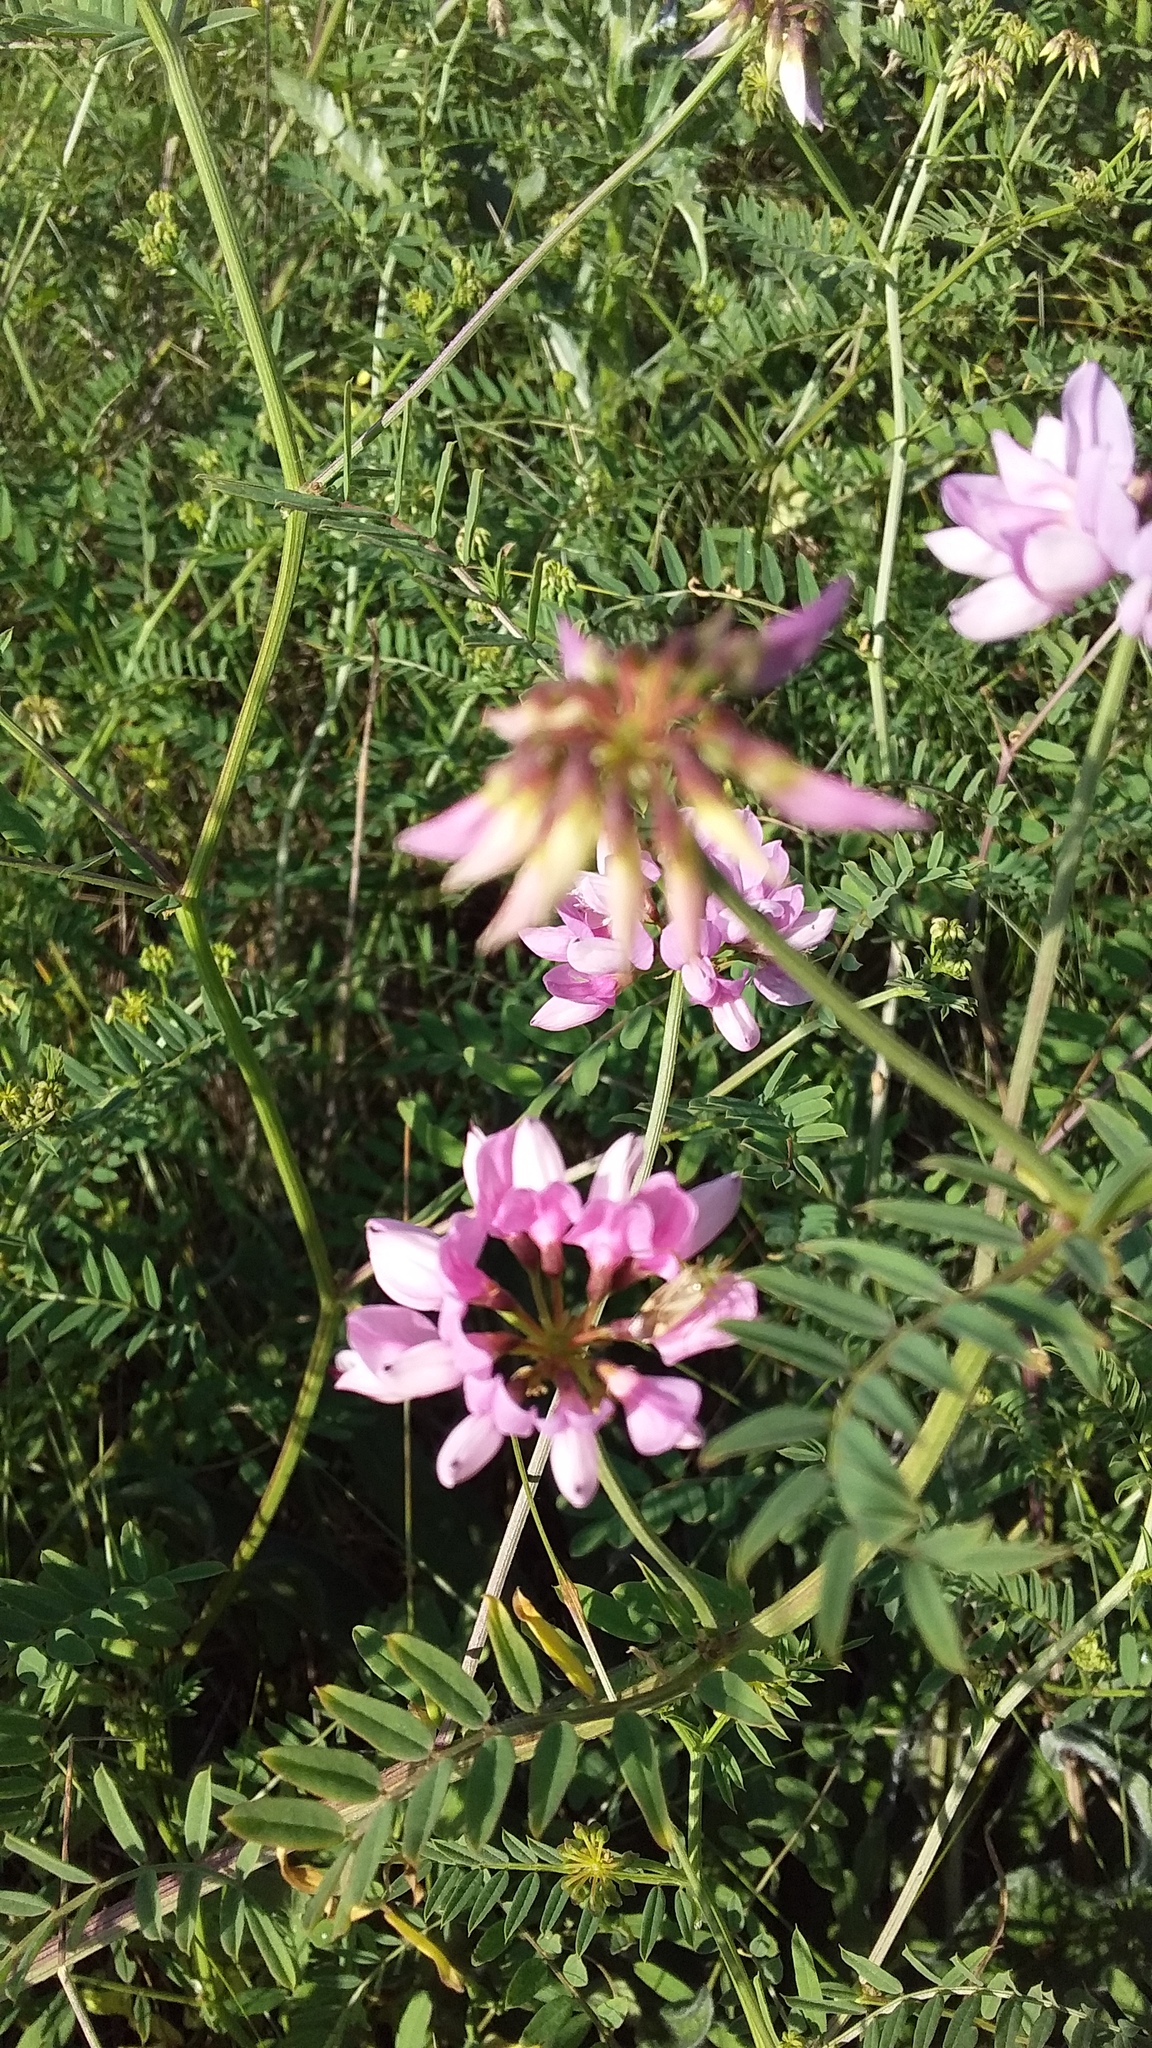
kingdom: Plantae
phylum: Tracheophyta
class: Magnoliopsida
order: Fabales
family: Fabaceae
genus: Coronilla
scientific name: Coronilla varia
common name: Crownvetch
